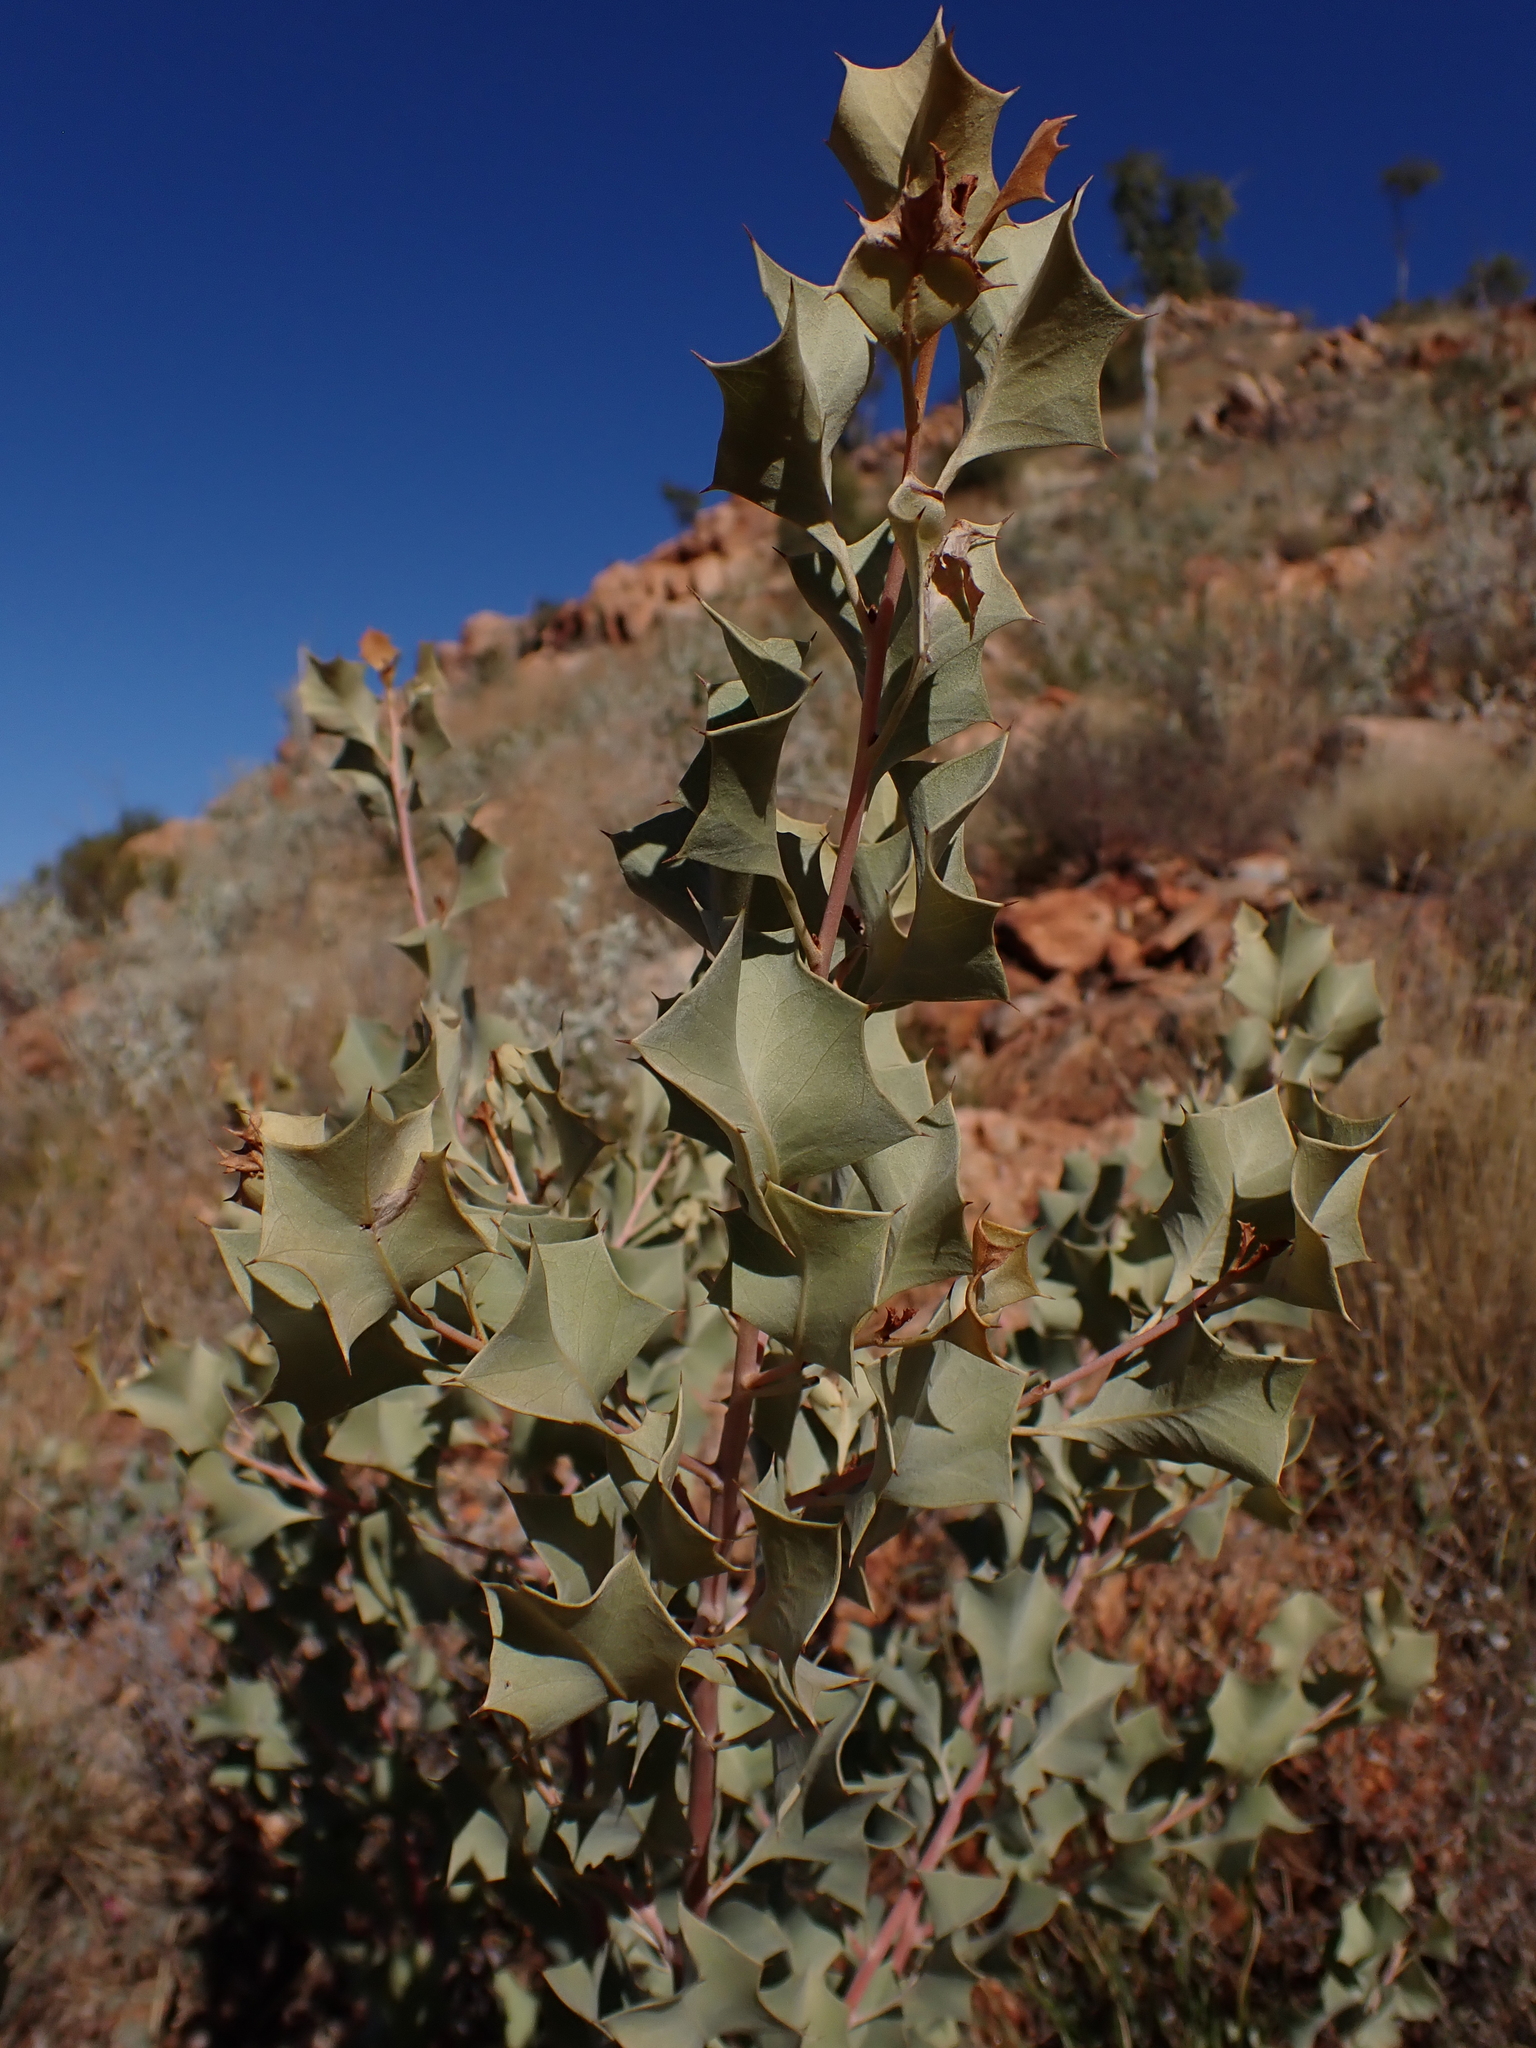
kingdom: Plantae
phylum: Tracheophyta
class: Magnoliopsida
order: Proteales
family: Proteaceae
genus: Grevillea
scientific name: Grevillea wickhamii
